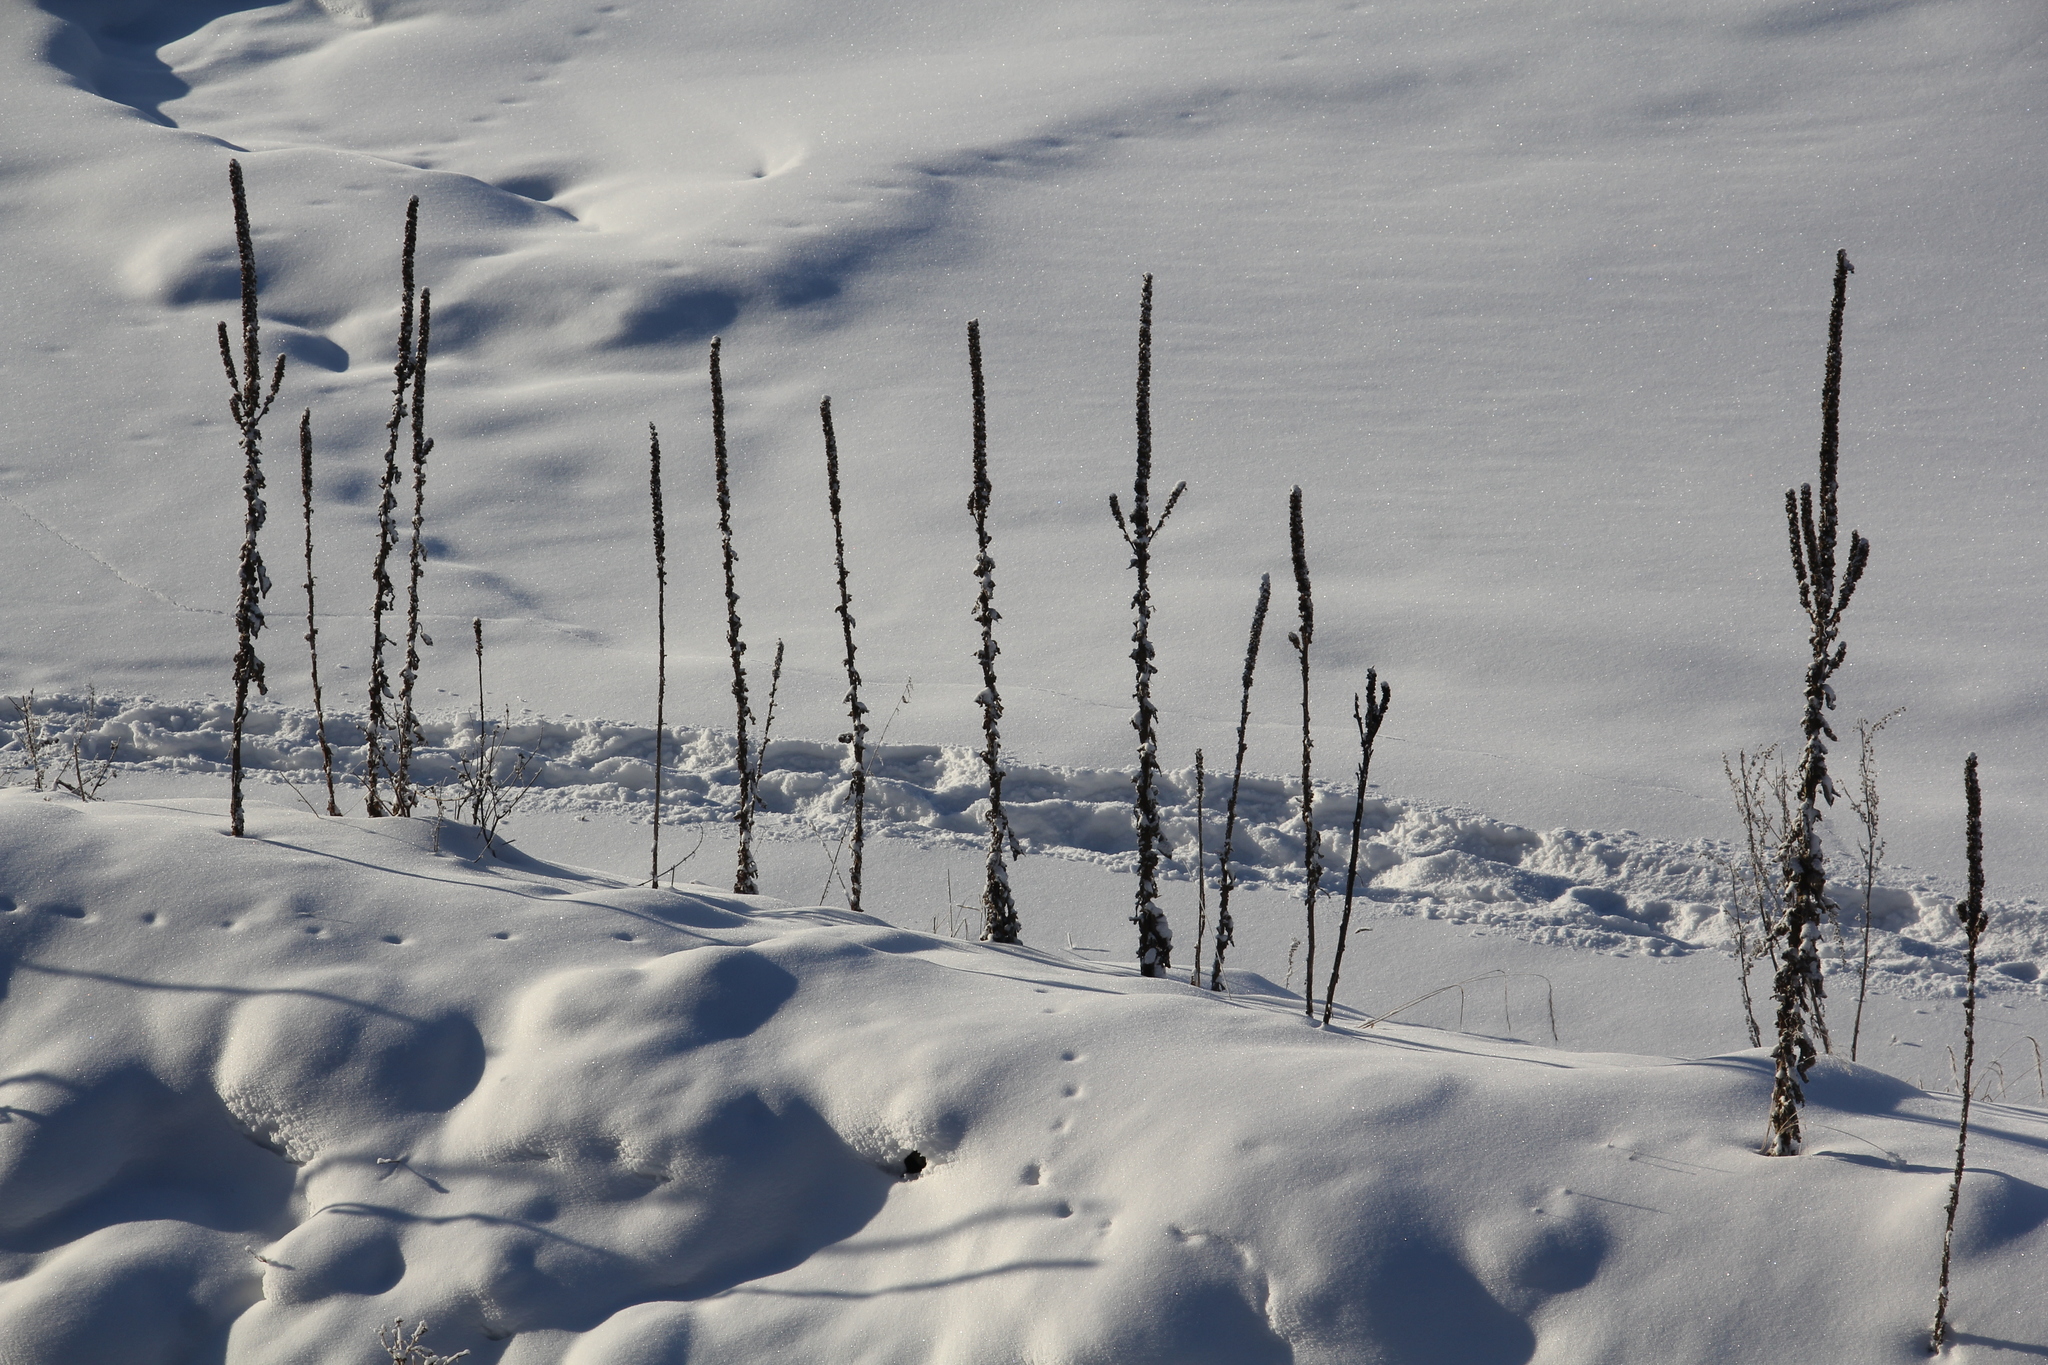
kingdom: Plantae
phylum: Tracheophyta
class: Magnoliopsida
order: Lamiales
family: Scrophulariaceae
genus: Verbascum
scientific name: Verbascum thapsus
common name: Common mullein
